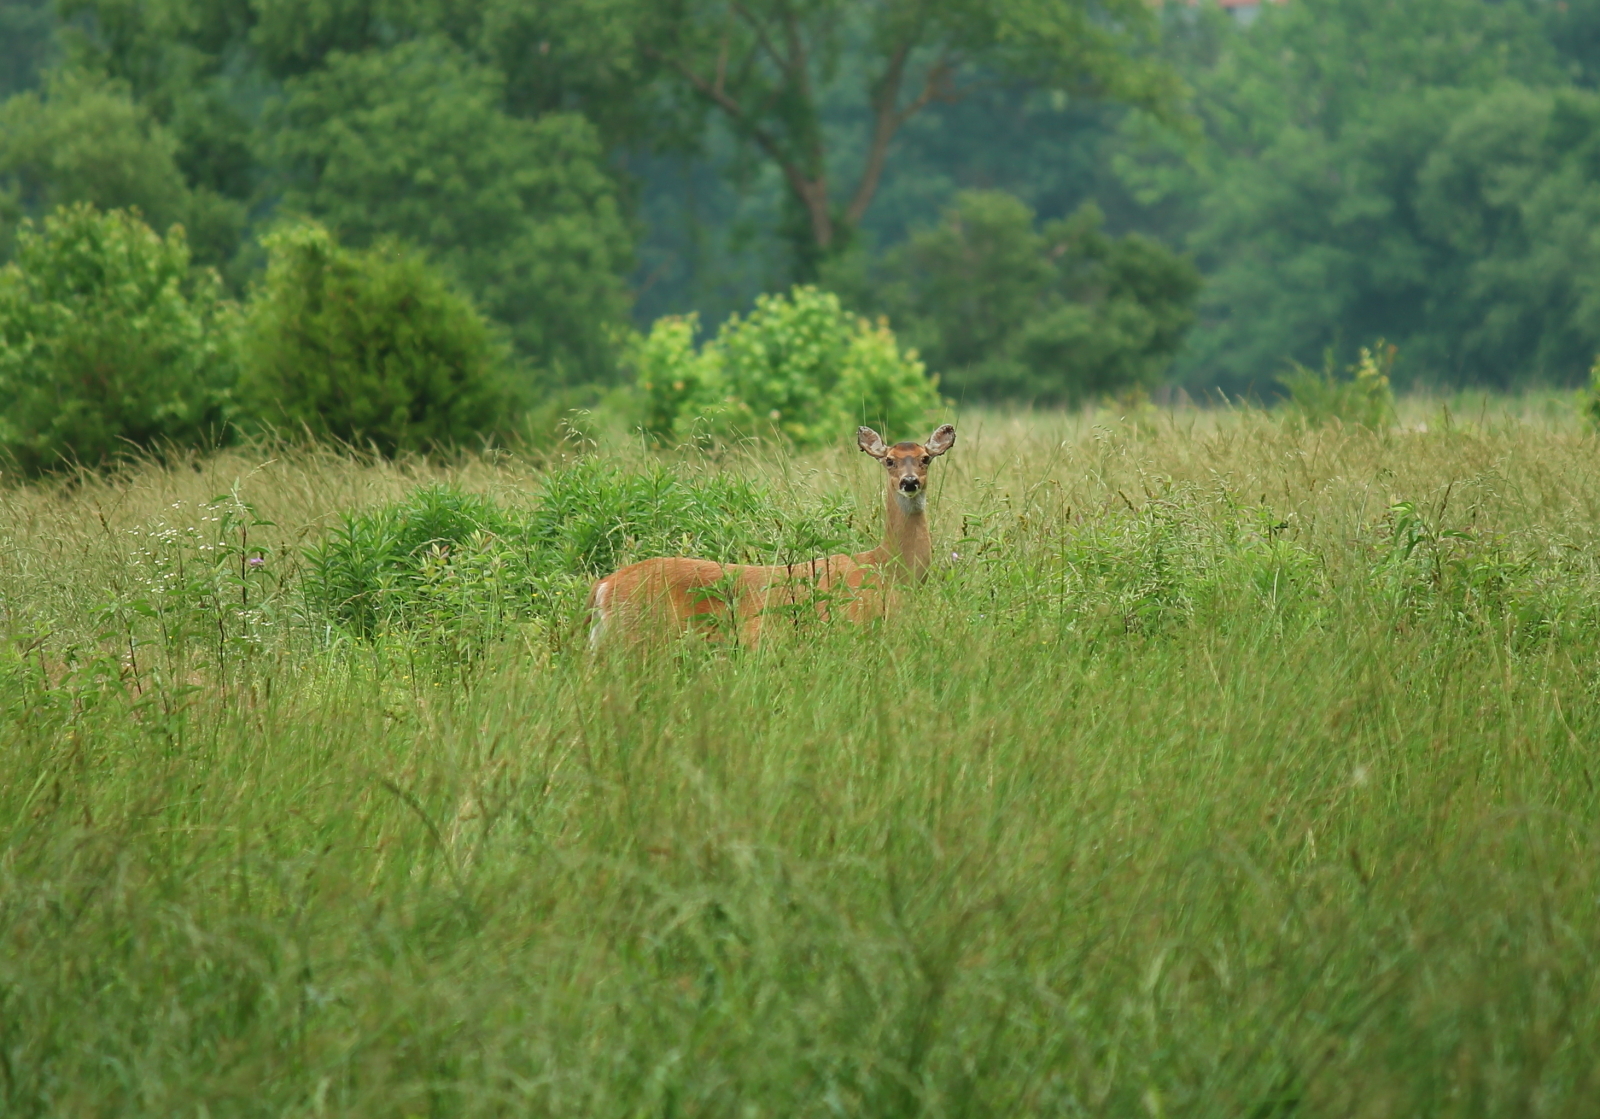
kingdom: Animalia
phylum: Chordata
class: Mammalia
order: Artiodactyla
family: Cervidae
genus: Odocoileus
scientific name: Odocoileus virginianus
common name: White-tailed deer
